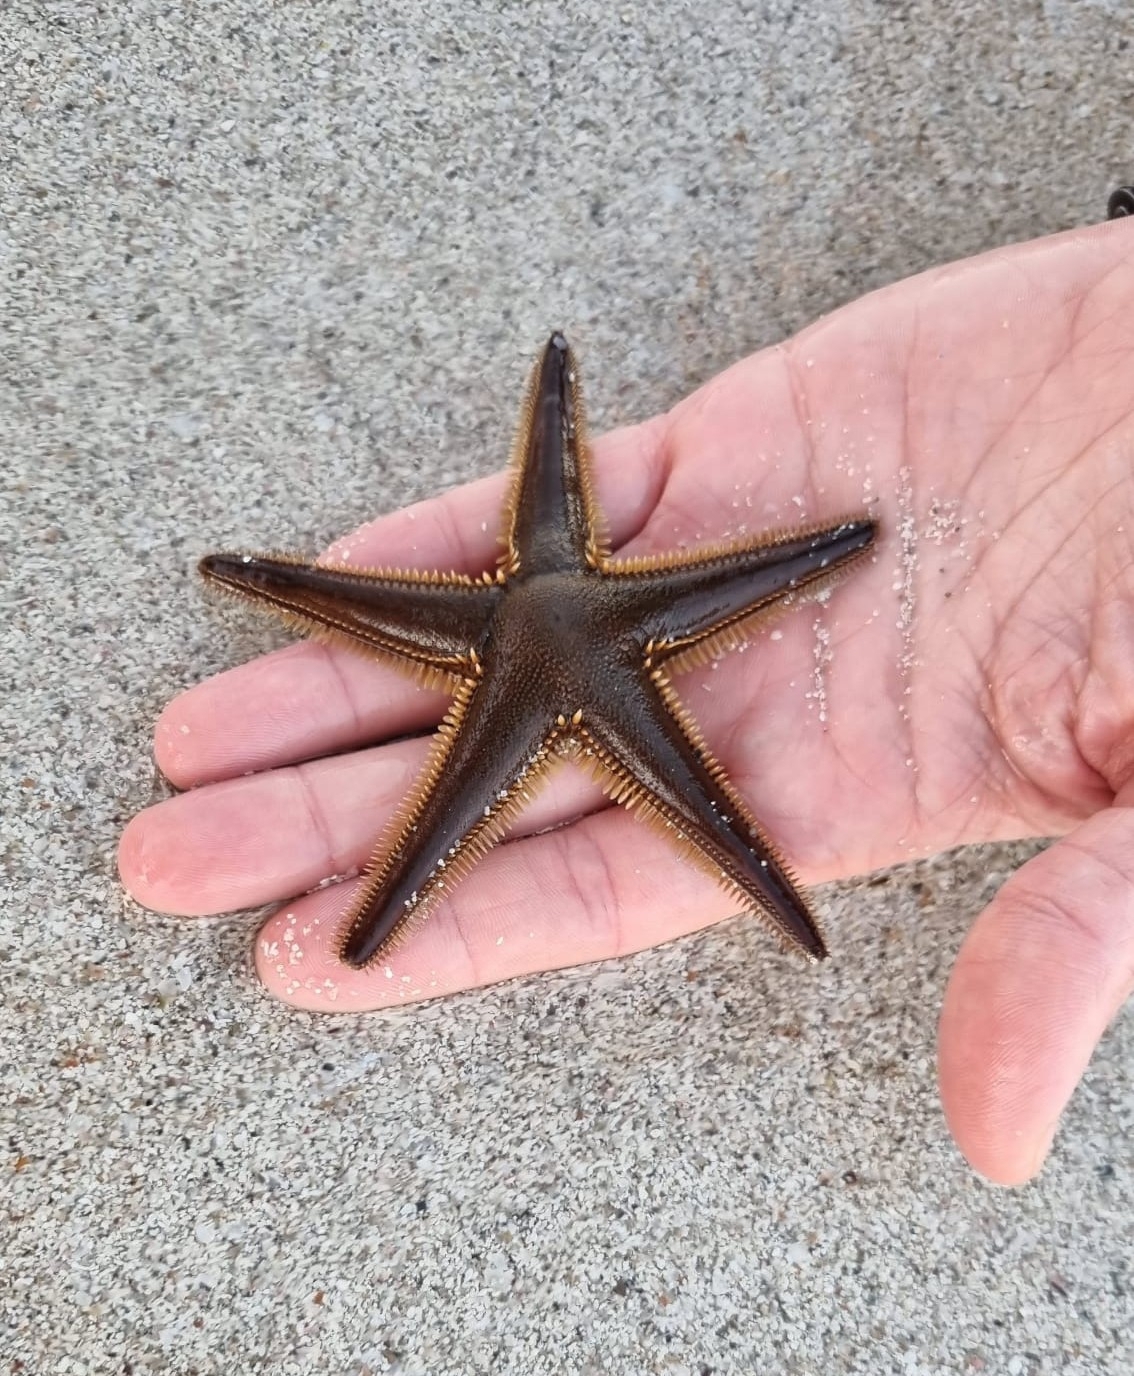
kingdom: Animalia
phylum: Echinodermata
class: Asteroidea
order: Paxillosida
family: Astropectinidae
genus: Astropecten
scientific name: Astropecten bispinosus
